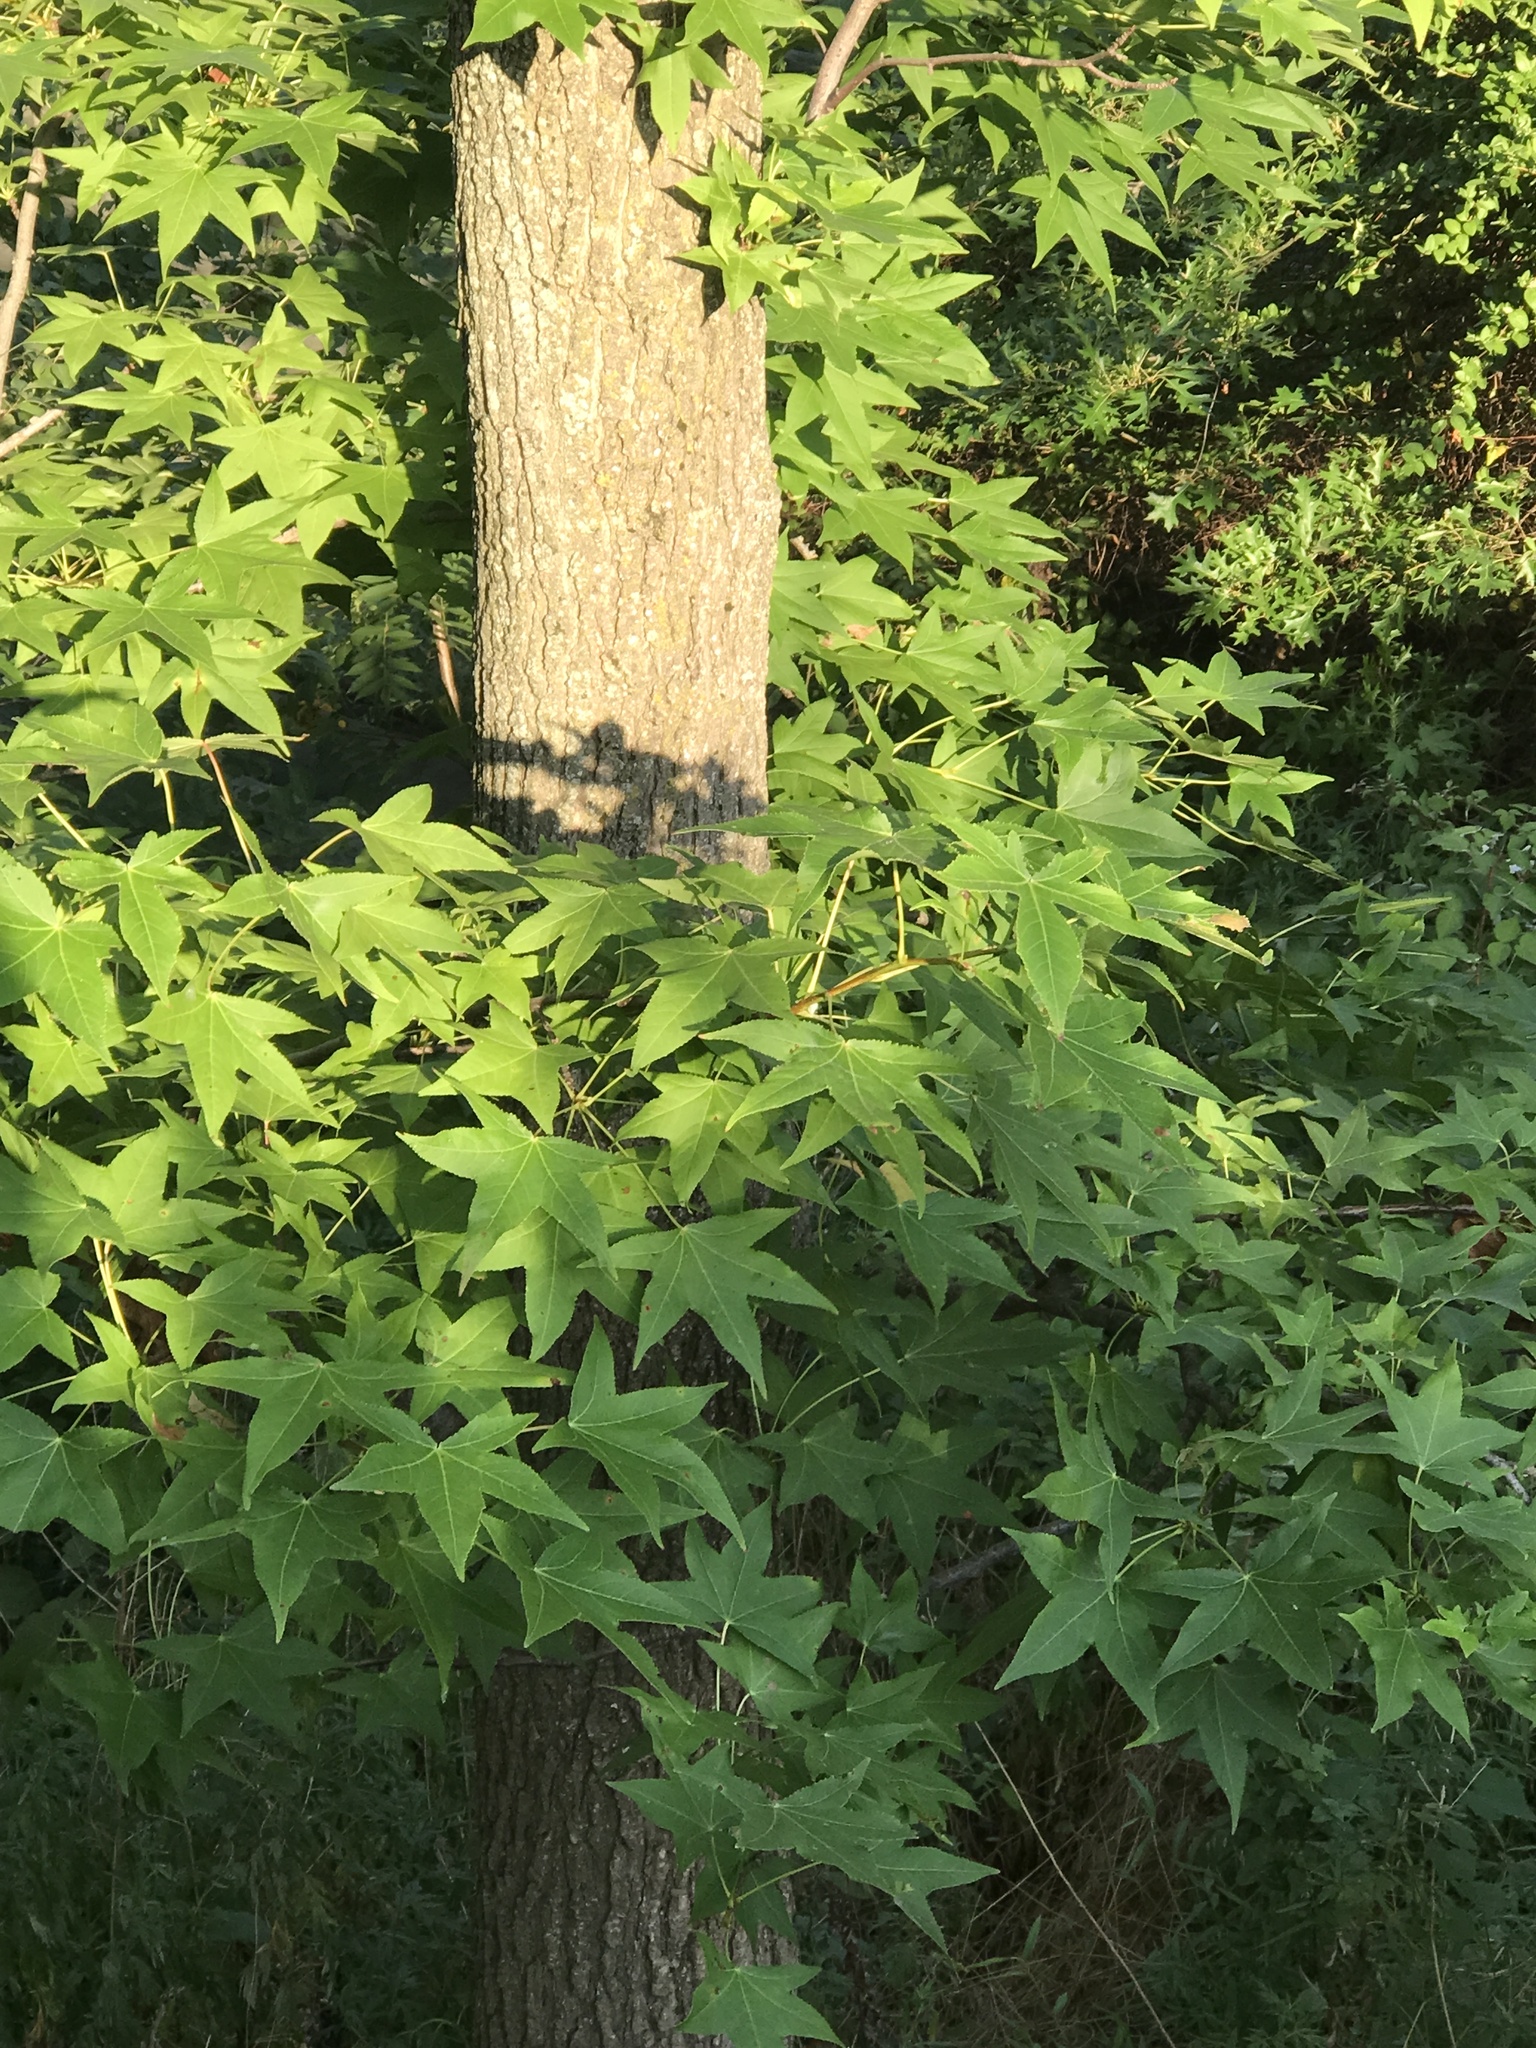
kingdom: Plantae
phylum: Tracheophyta
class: Magnoliopsida
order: Saxifragales
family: Altingiaceae
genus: Liquidambar
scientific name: Liquidambar styraciflua
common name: Sweet gum
